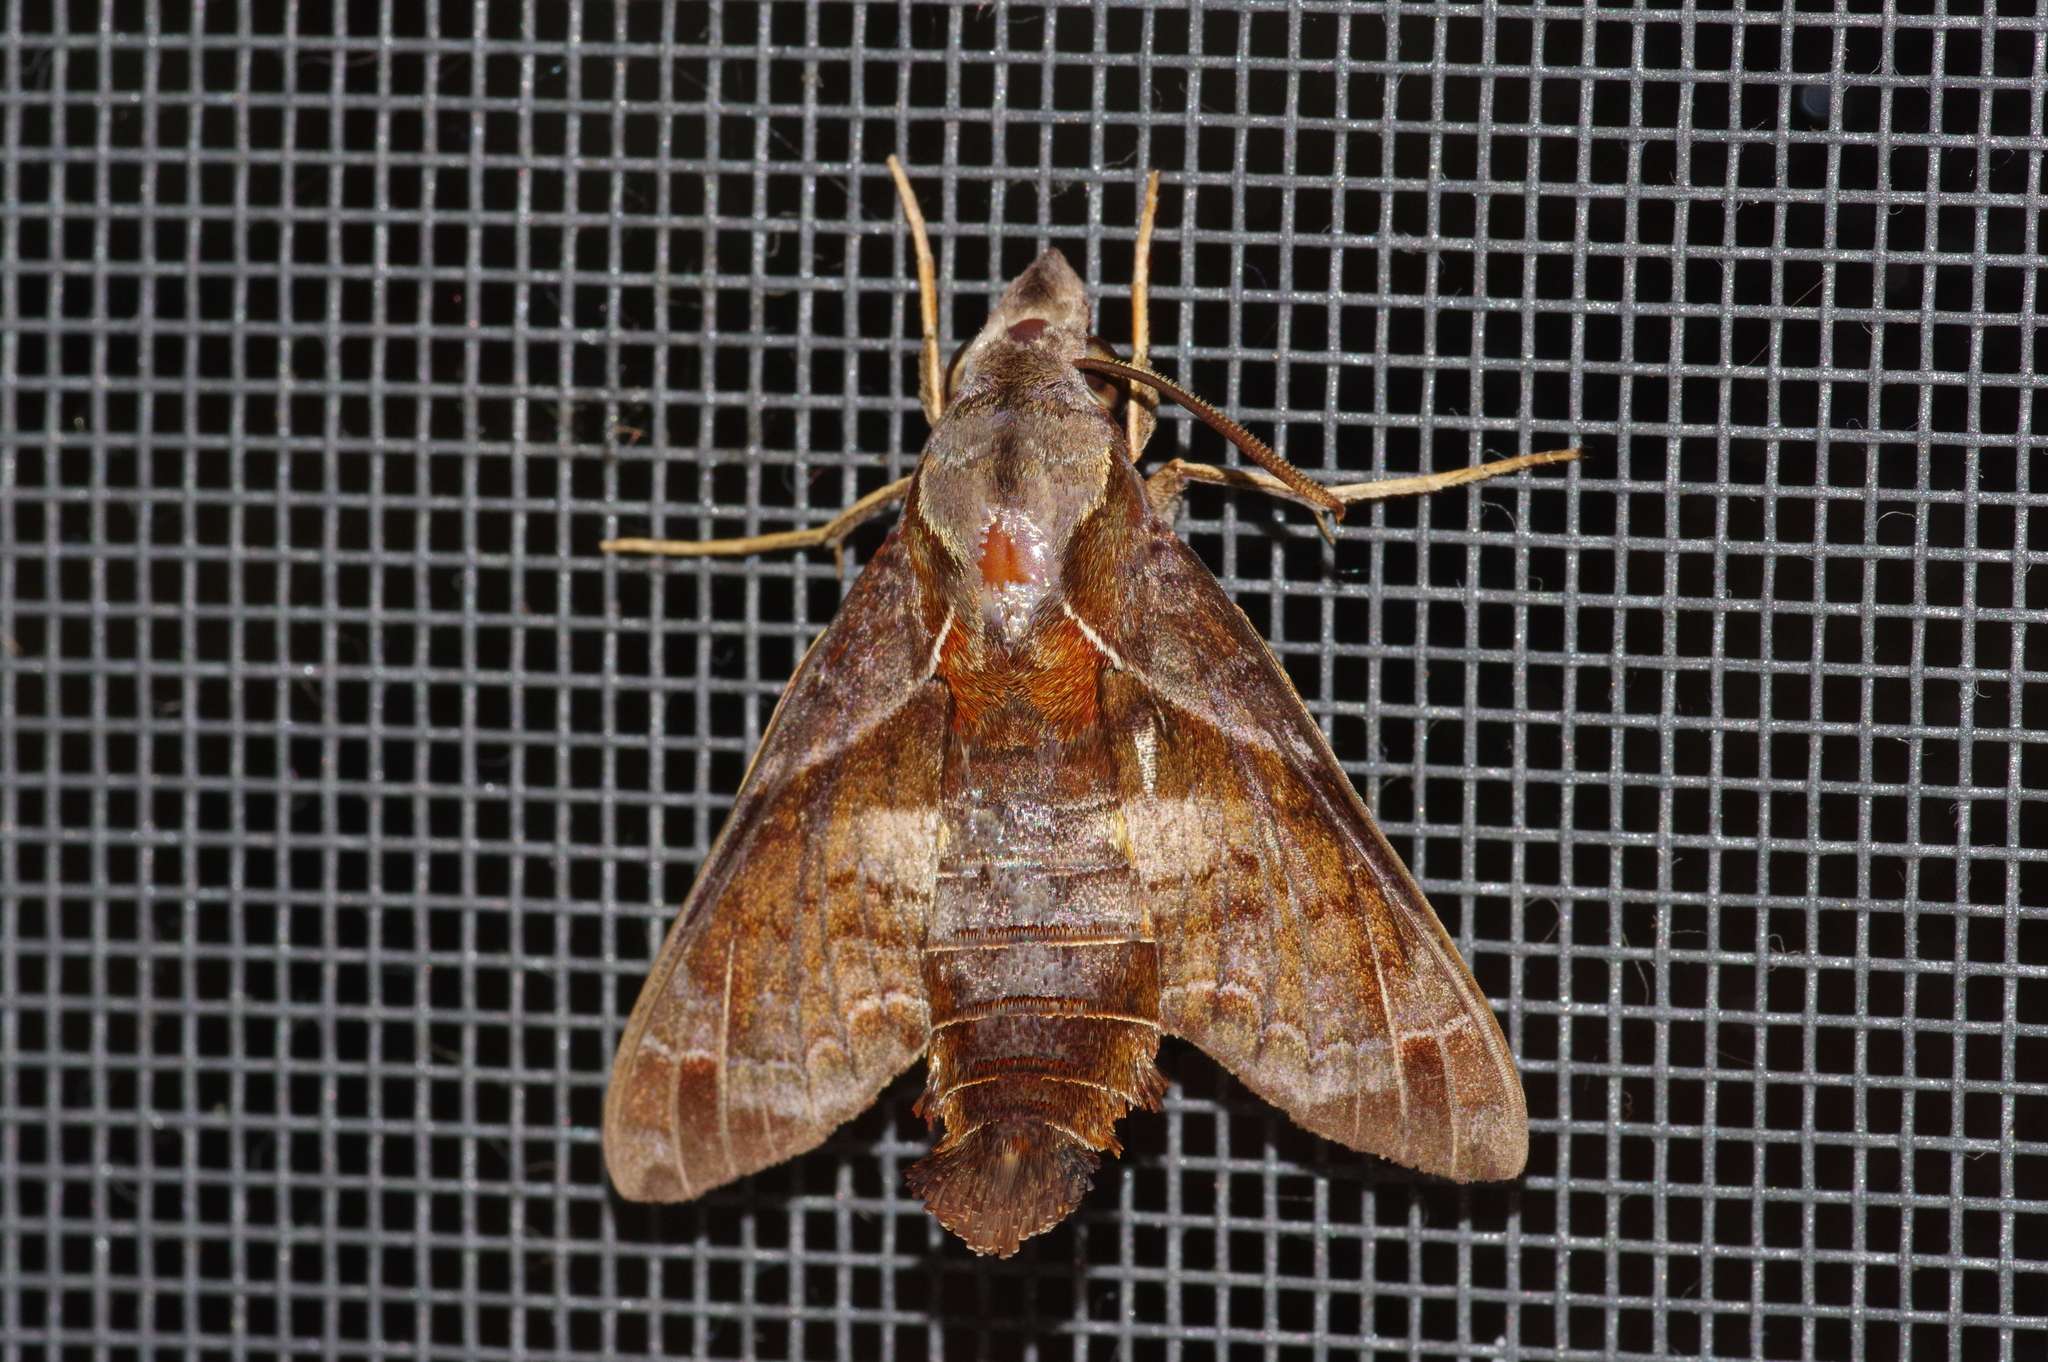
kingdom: Animalia
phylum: Arthropoda
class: Insecta
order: Lepidoptera
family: Sphingidae
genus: Macroglossum
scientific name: Macroglossum fritzei
